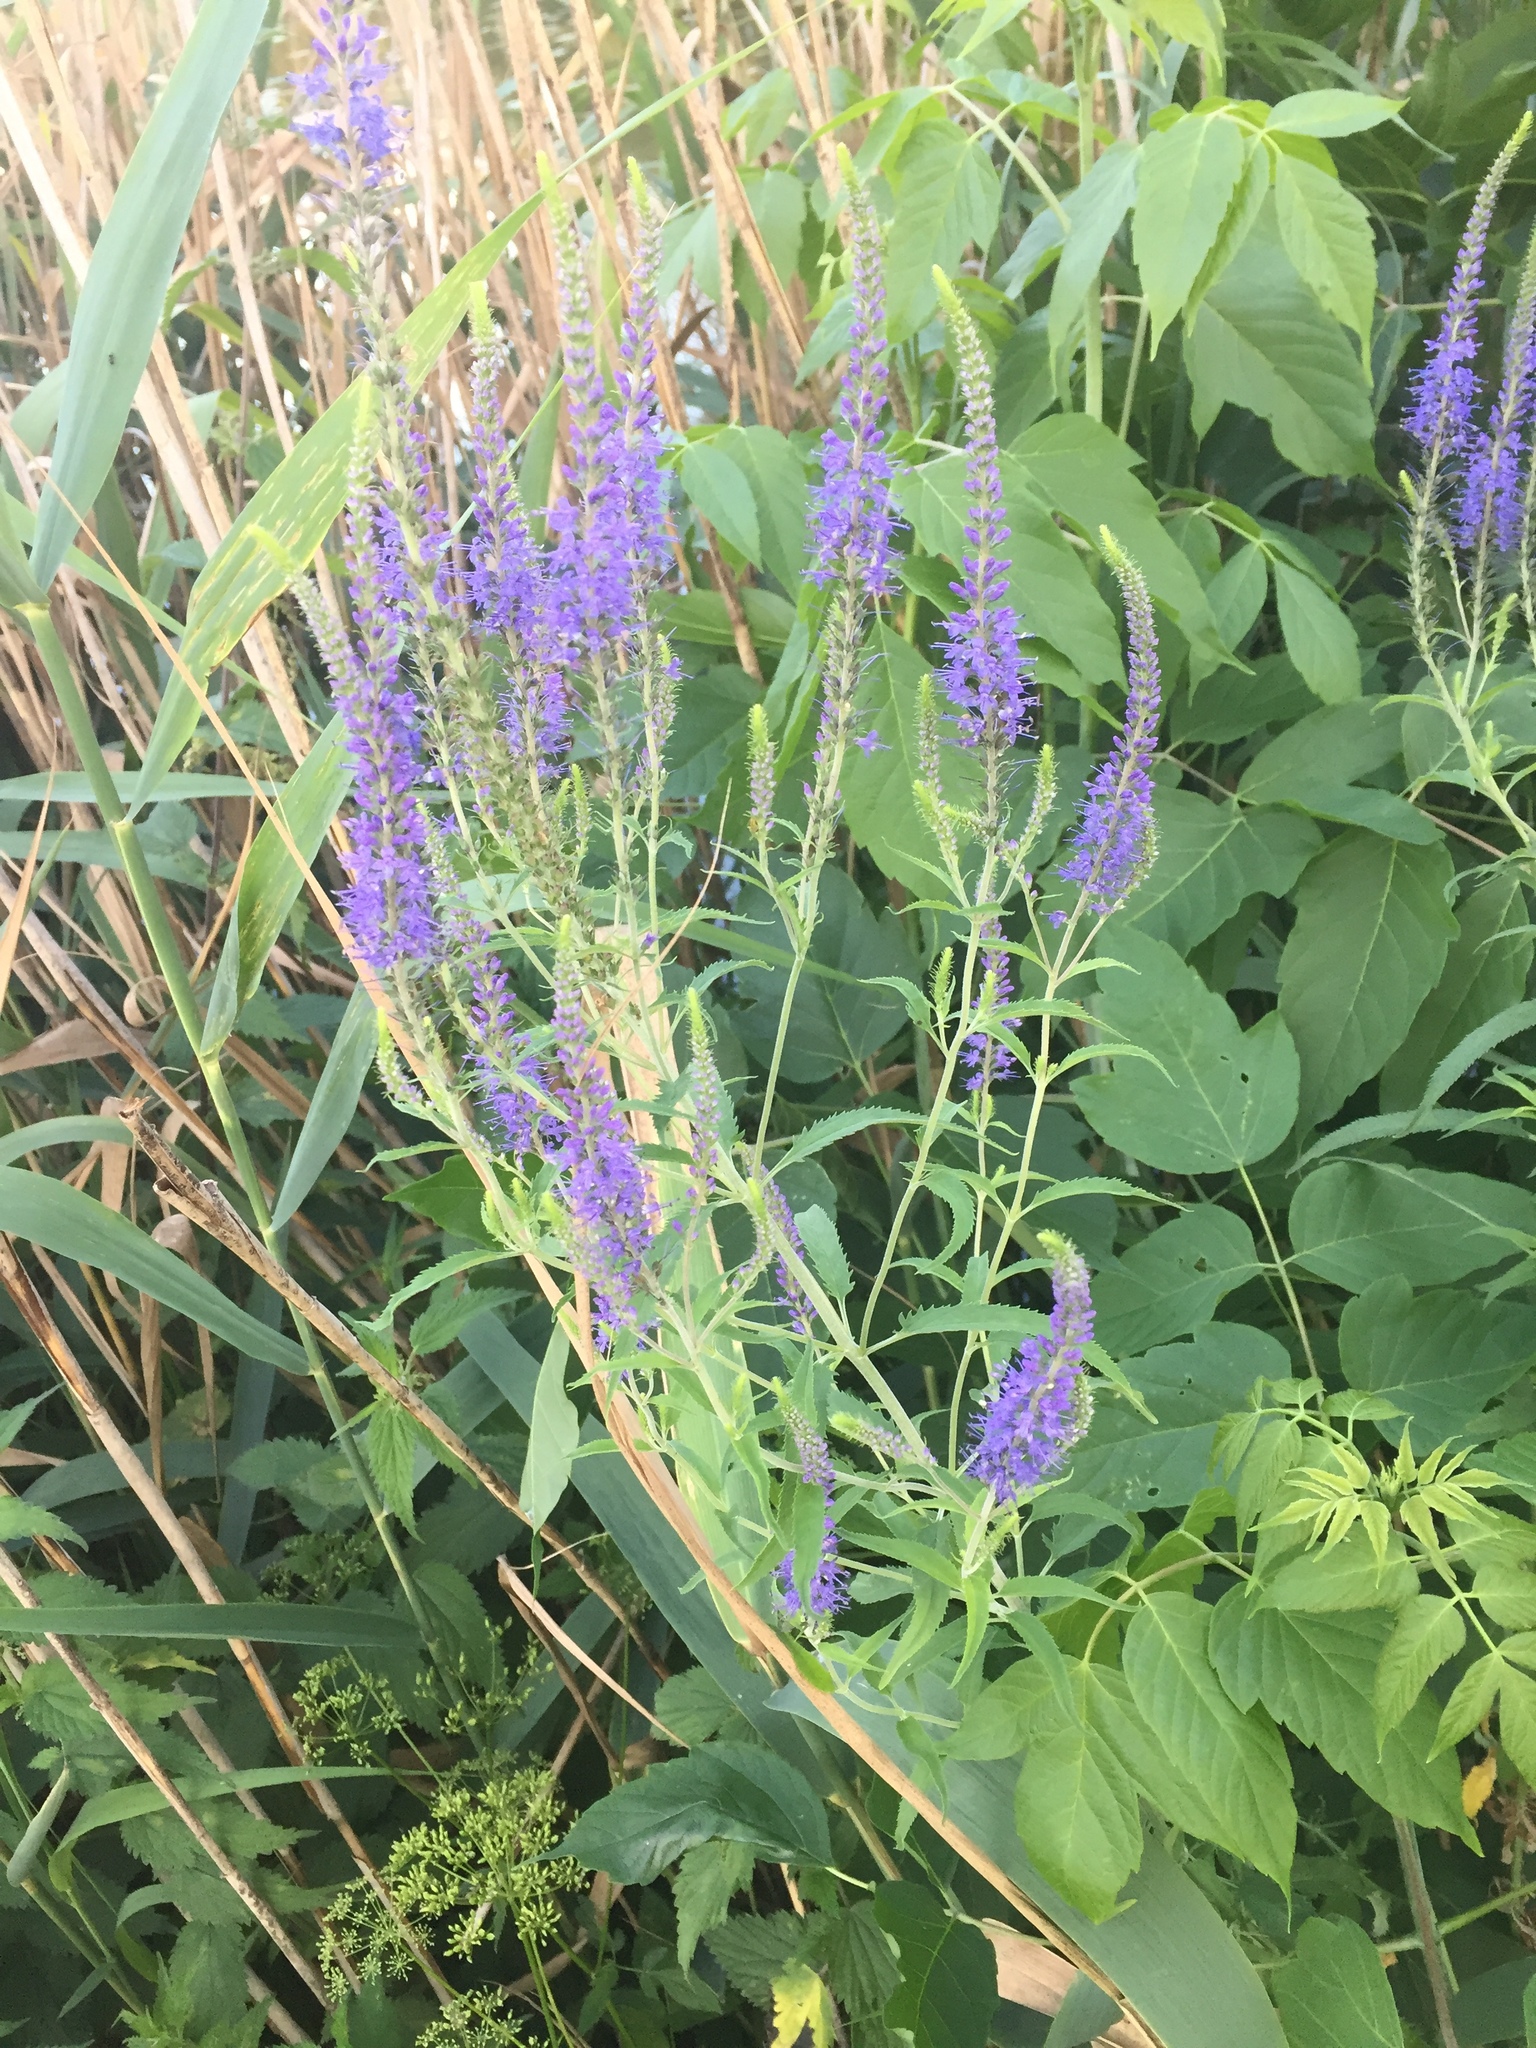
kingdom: Plantae
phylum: Tracheophyta
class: Magnoliopsida
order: Lamiales
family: Plantaginaceae
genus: Veronica
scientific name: Veronica longifolia
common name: Garden speedwell
